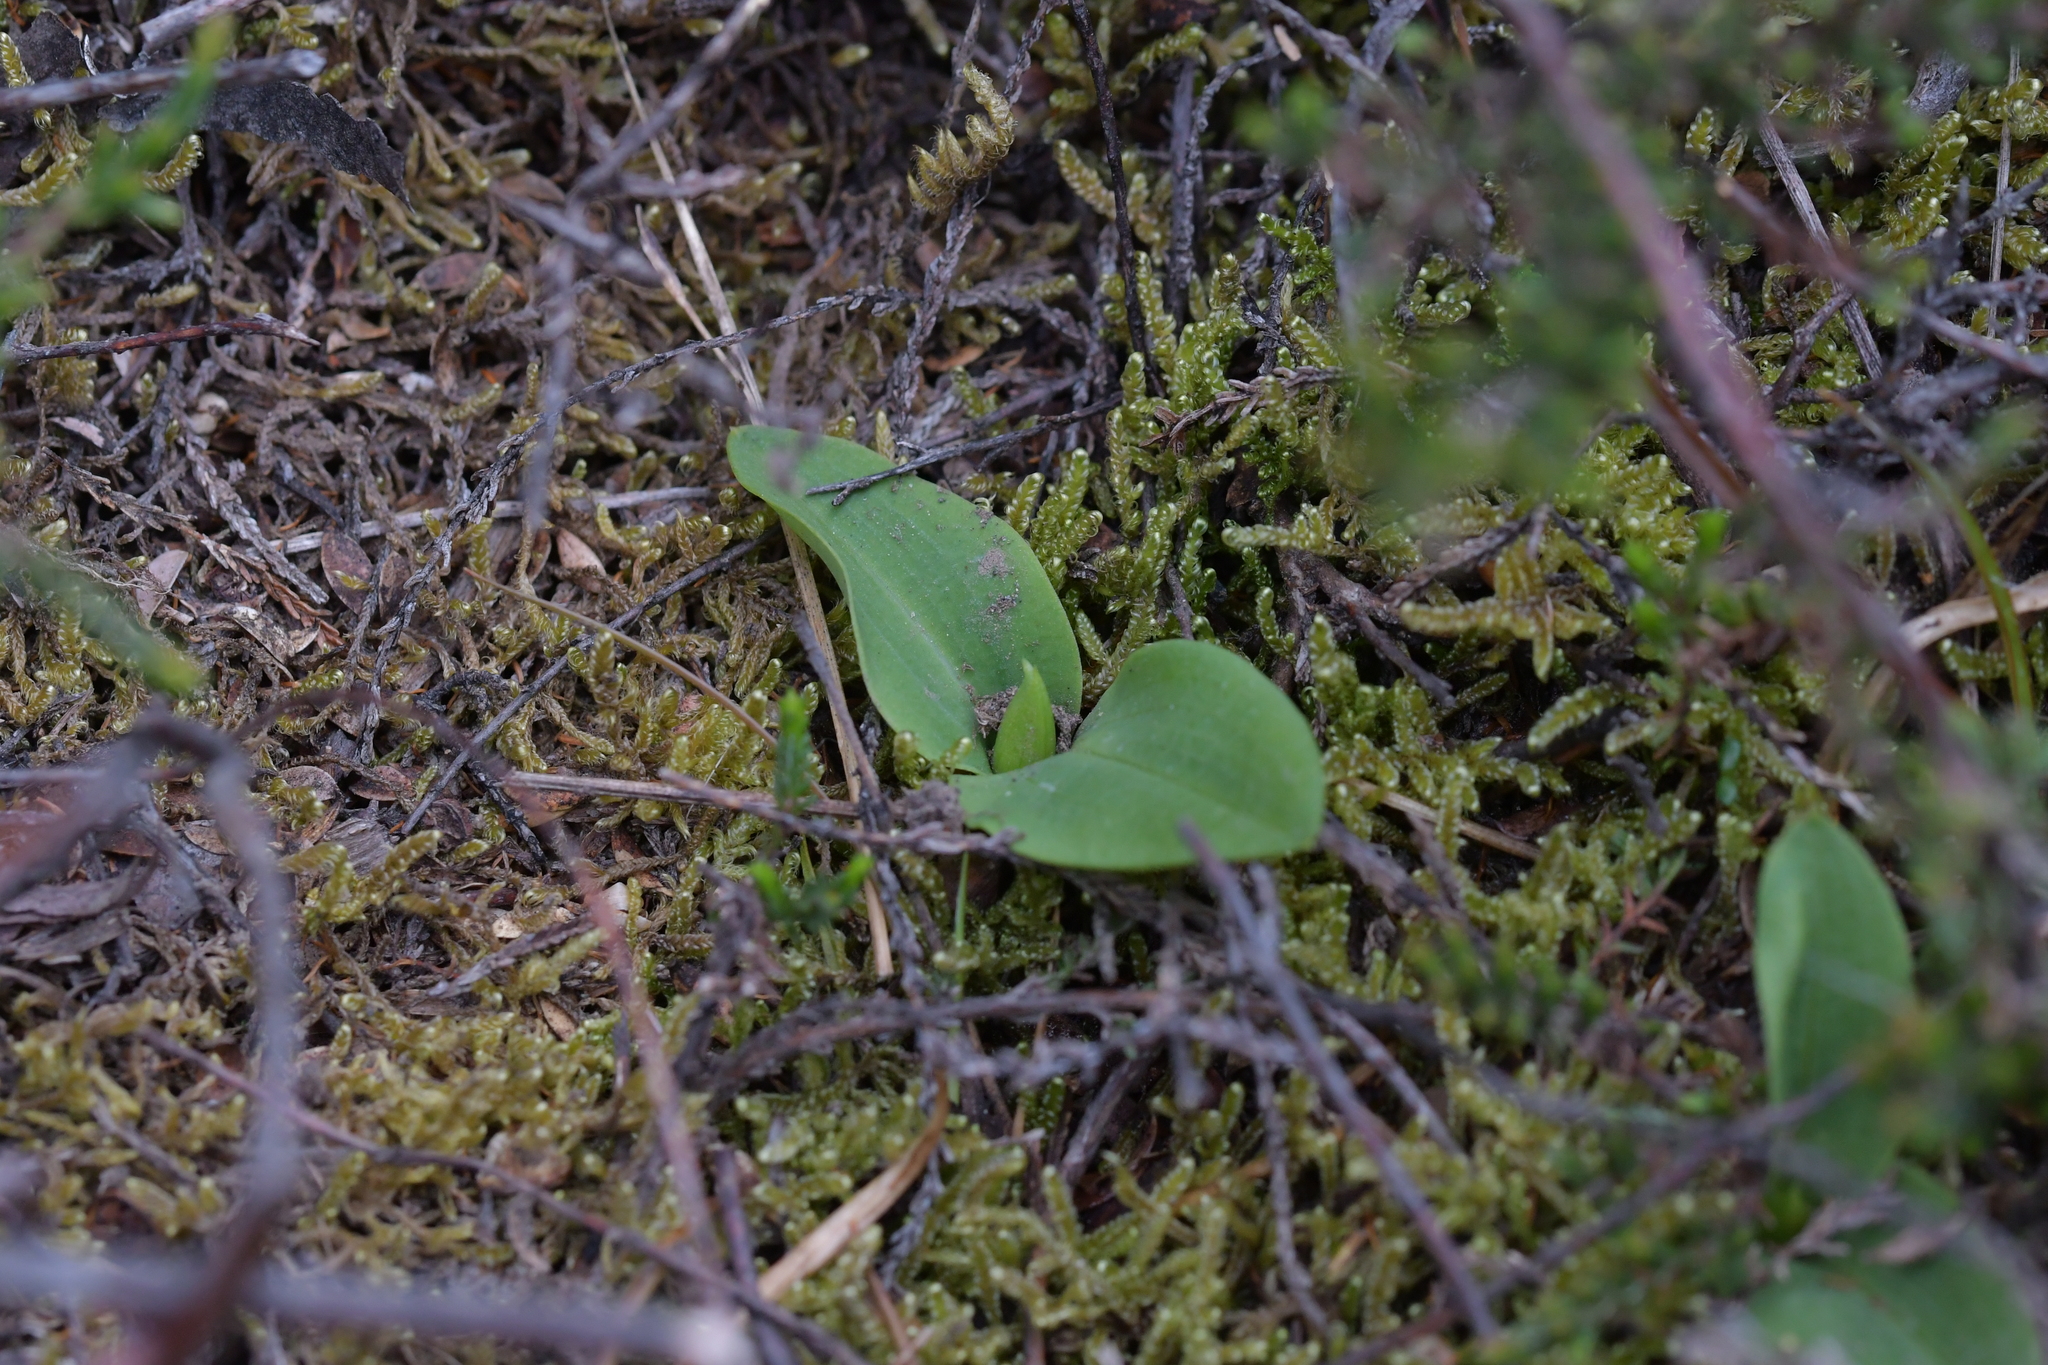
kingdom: Plantae
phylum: Tracheophyta
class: Liliopsida
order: Asparagales
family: Orchidaceae
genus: Chiloglottis
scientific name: Chiloglottis cornuta
